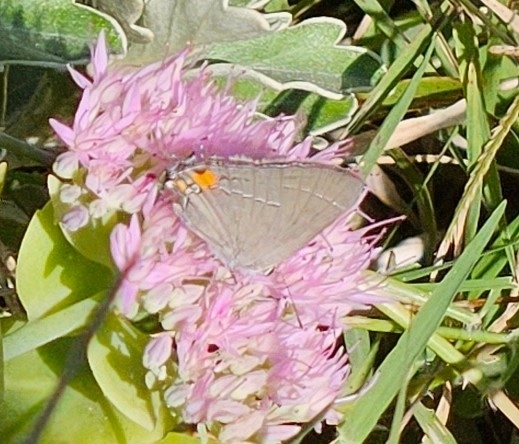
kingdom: Animalia
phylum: Arthropoda
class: Insecta
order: Lepidoptera
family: Lycaenidae
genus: Strymon
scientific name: Strymon melinus
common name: Gray hairstreak
